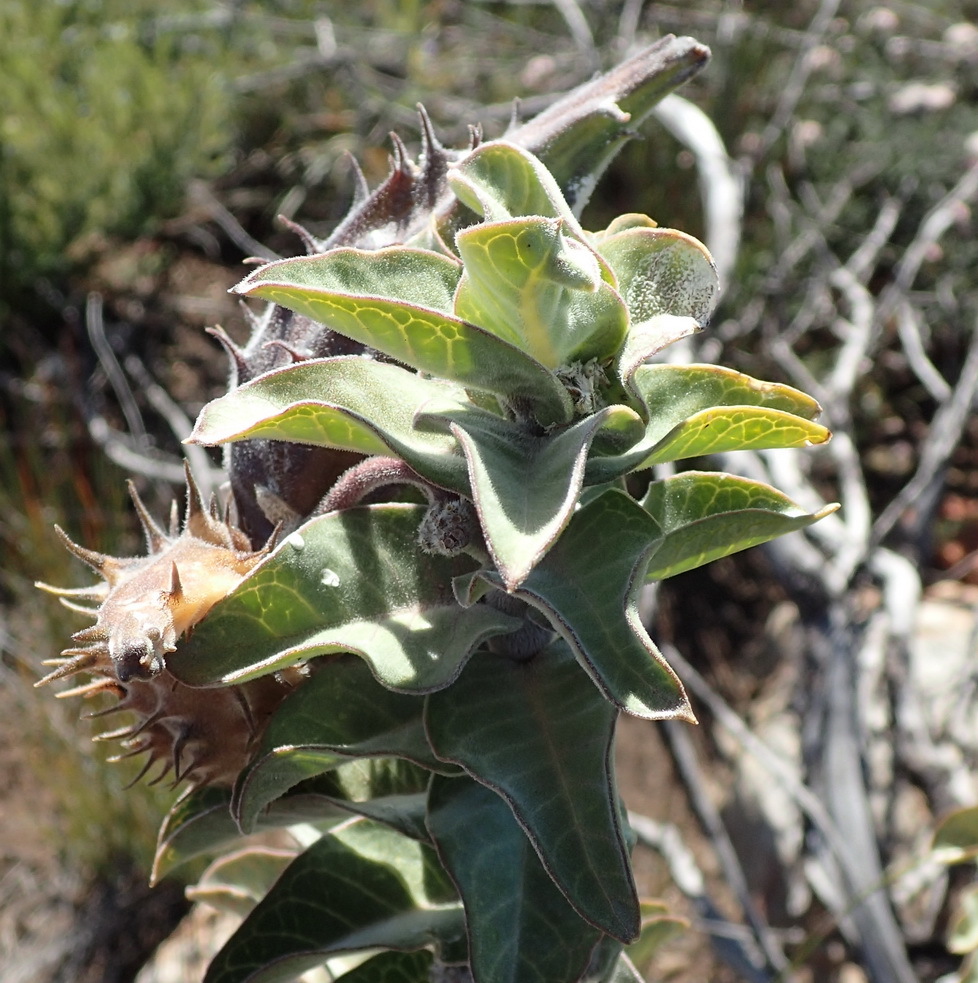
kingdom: Plantae
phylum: Tracheophyta
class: Magnoliopsida
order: Gentianales
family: Apocynaceae
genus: Gomphocarpus
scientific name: Gomphocarpus cancellatus
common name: Wild cotton
